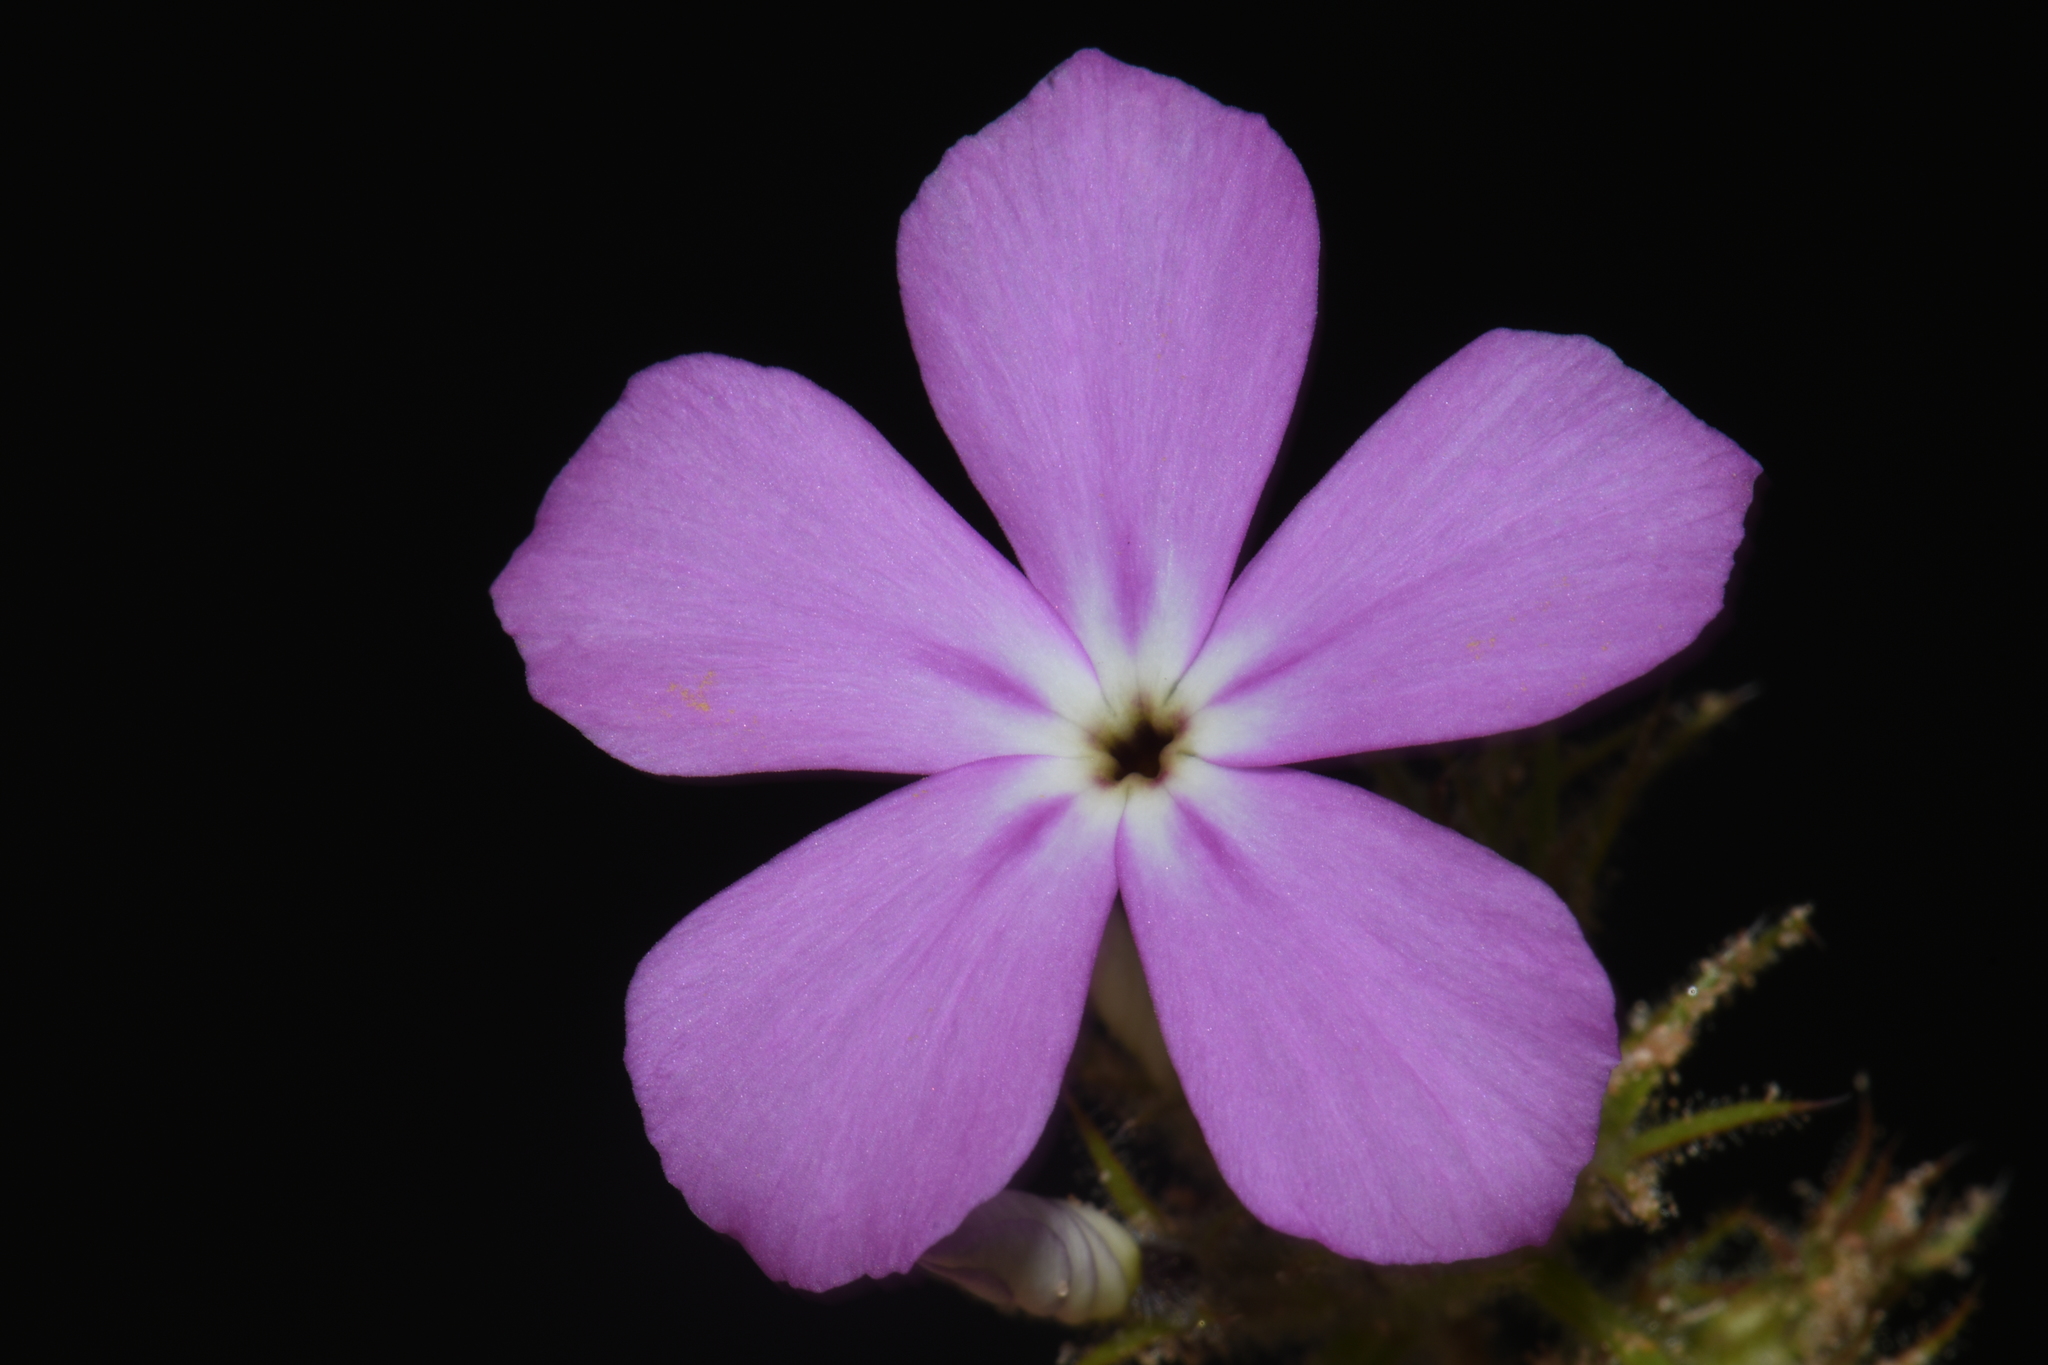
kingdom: Plantae
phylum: Tracheophyta
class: Magnoliopsida
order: Ericales
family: Polemoniaceae
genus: Phlox
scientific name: Phlox drummondii
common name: Drummond's phlox
